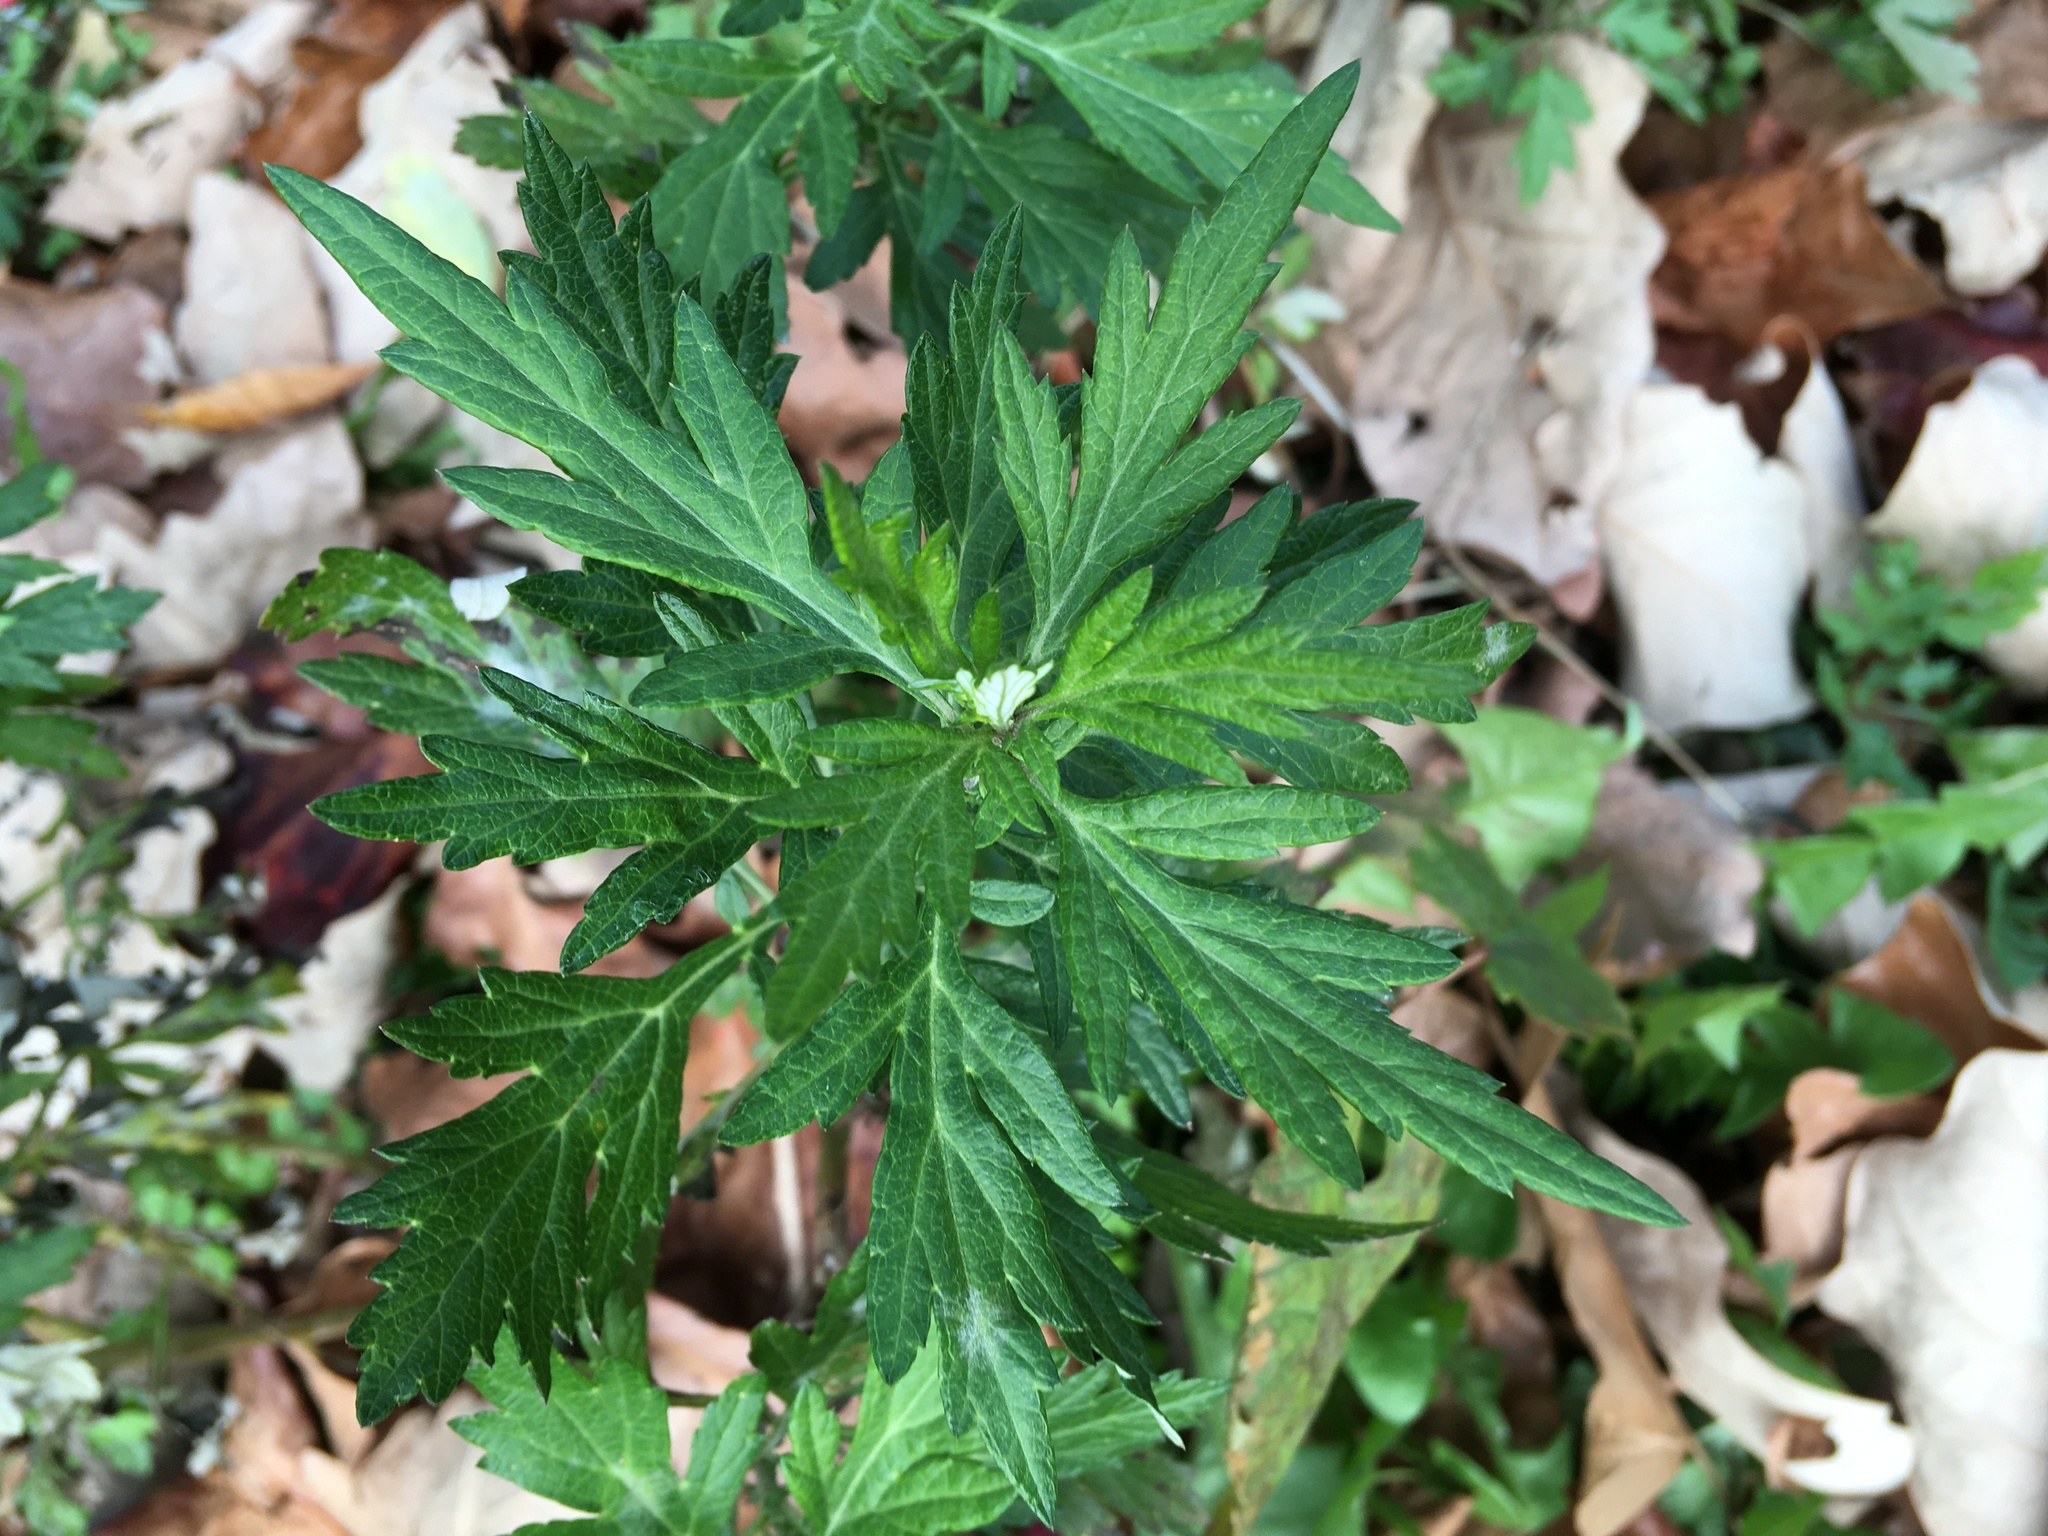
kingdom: Plantae
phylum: Tracheophyta
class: Magnoliopsida
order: Asterales
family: Asteraceae
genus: Artemisia
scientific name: Artemisia vulgaris
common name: Mugwort
